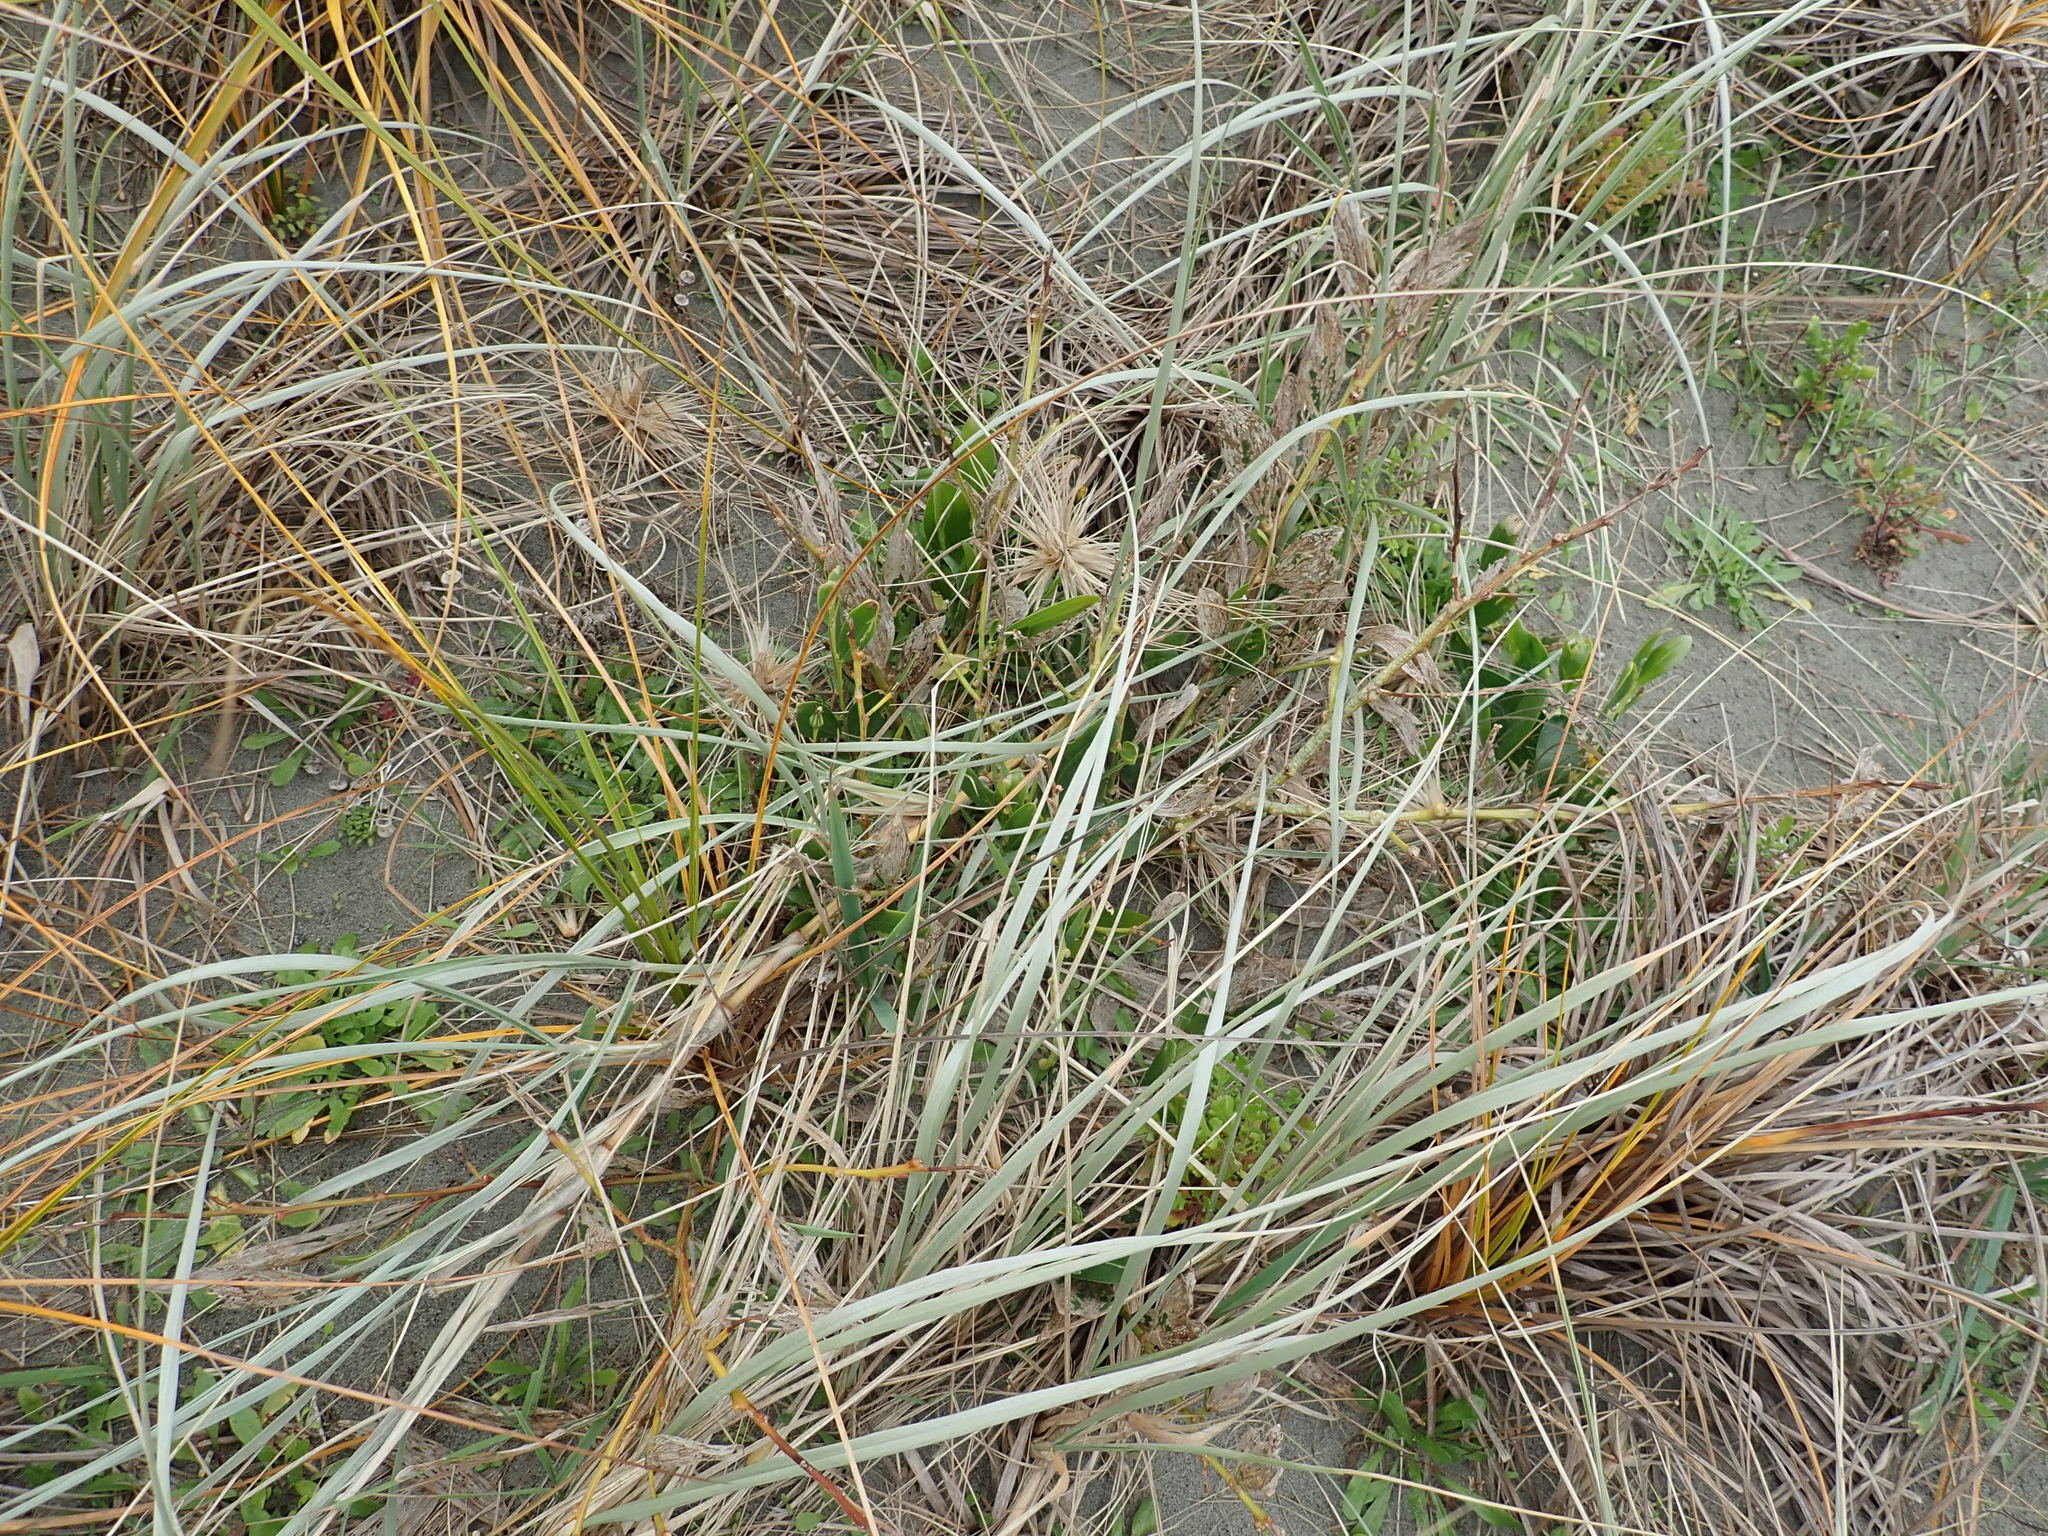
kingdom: Plantae
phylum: Tracheophyta
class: Magnoliopsida
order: Fabales
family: Fabaceae
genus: Acacia
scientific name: Acacia longifolia
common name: Sydney golden wattle
